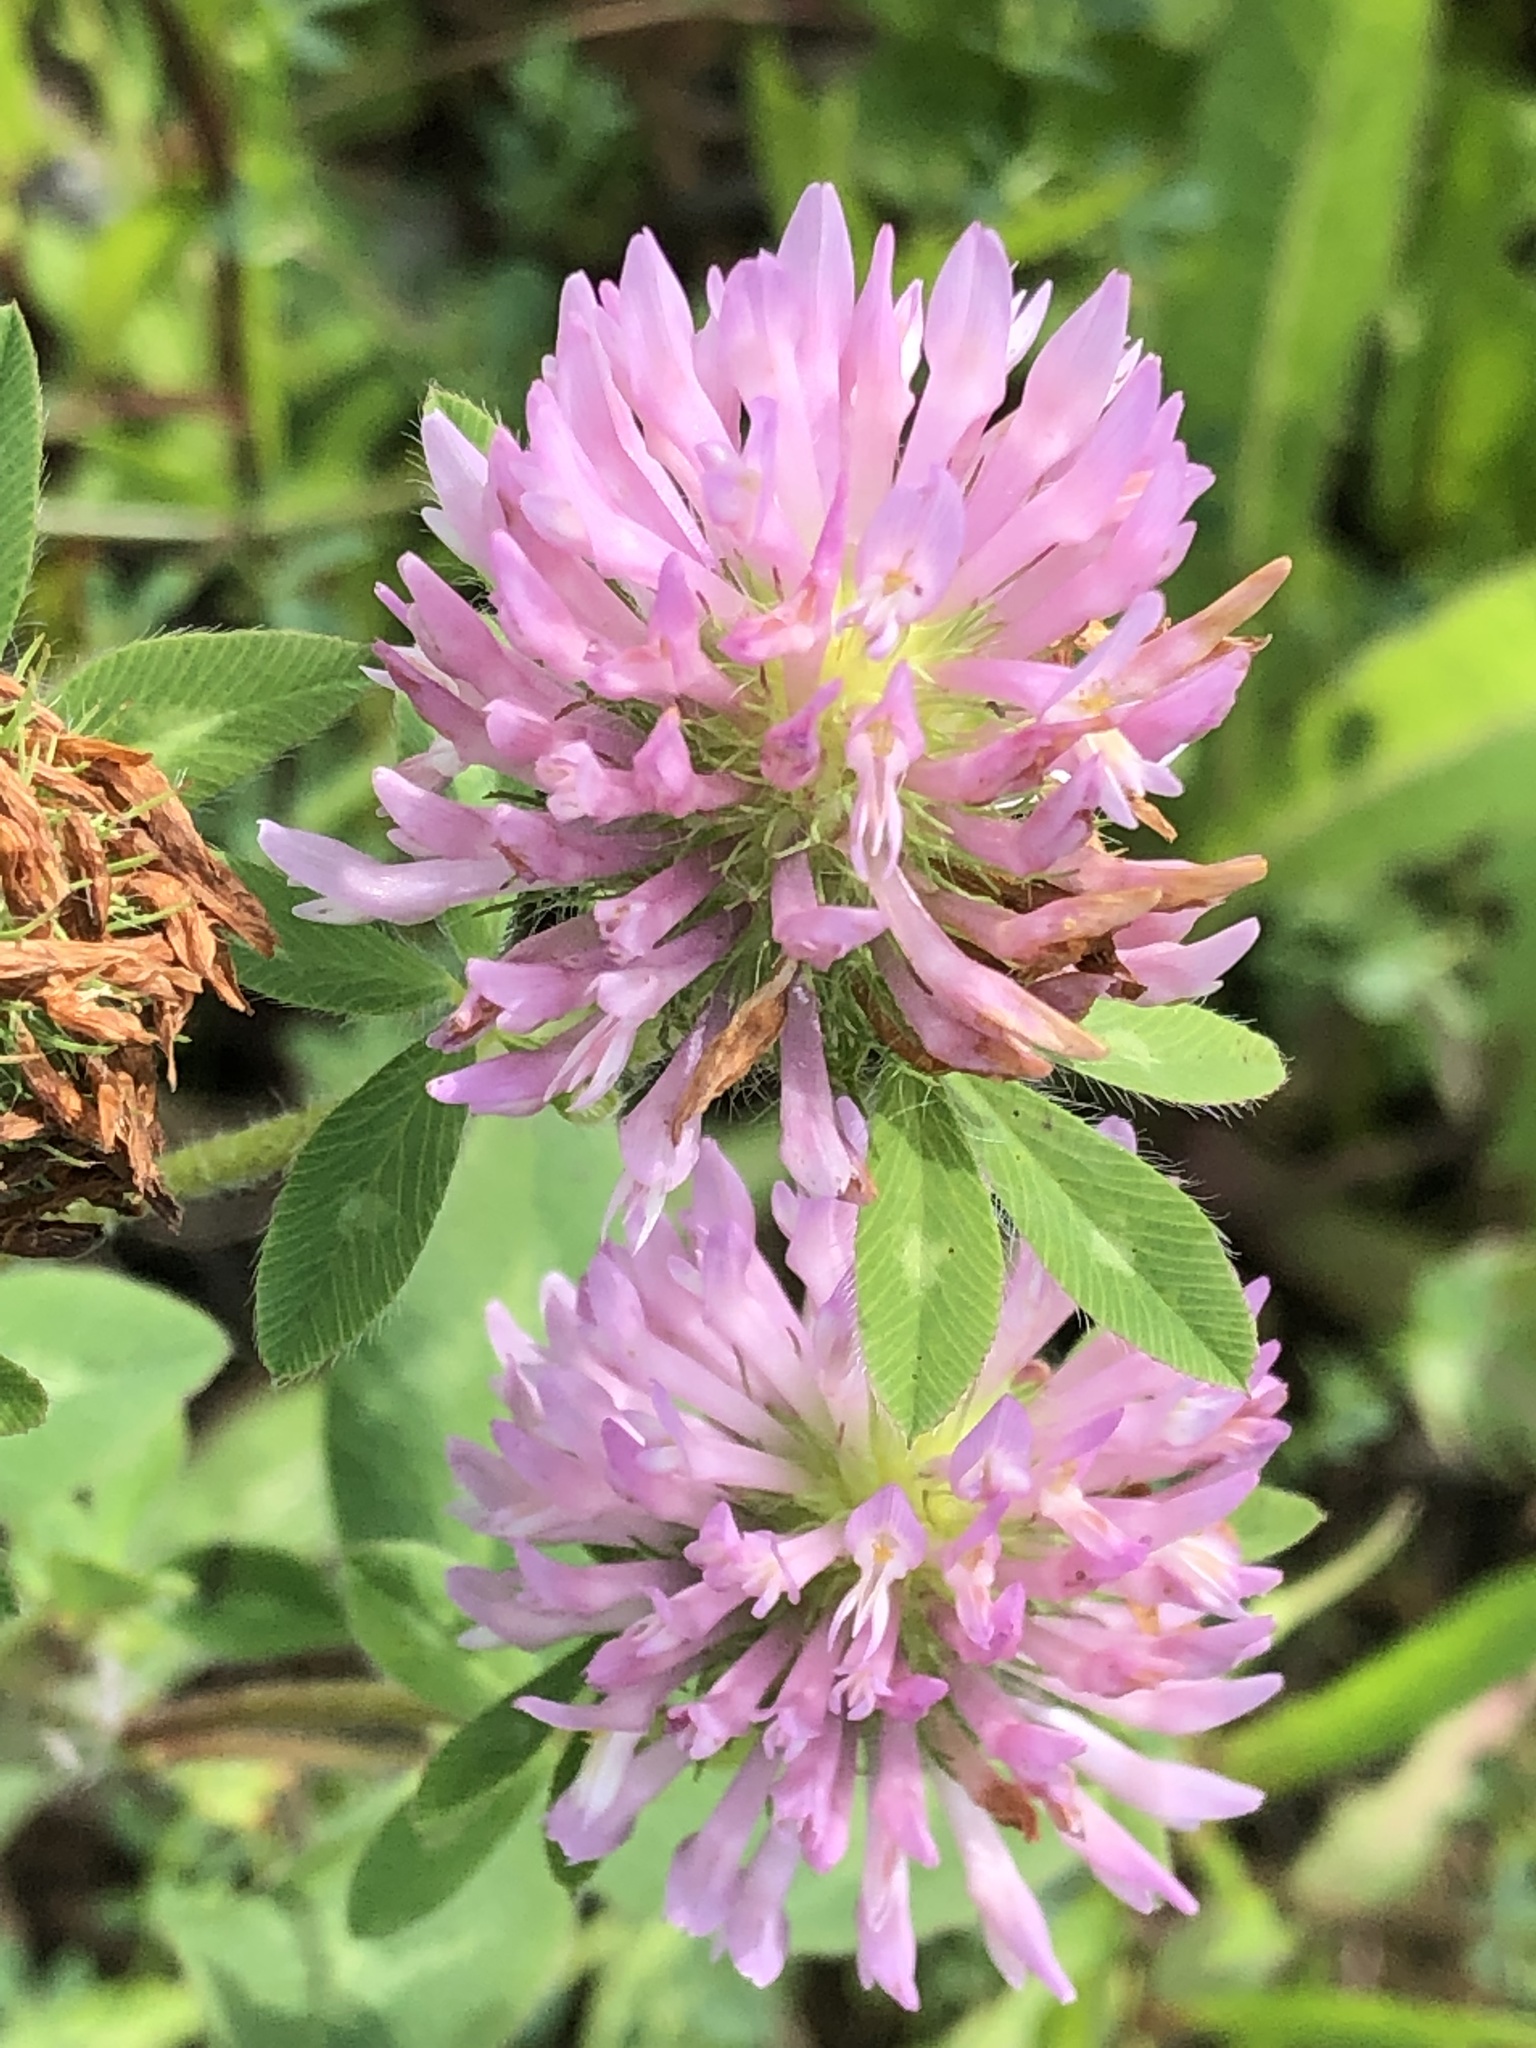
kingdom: Plantae
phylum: Tracheophyta
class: Magnoliopsida
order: Fabales
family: Fabaceae
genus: Trifolium
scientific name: Trifolium pratense
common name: Red clover
